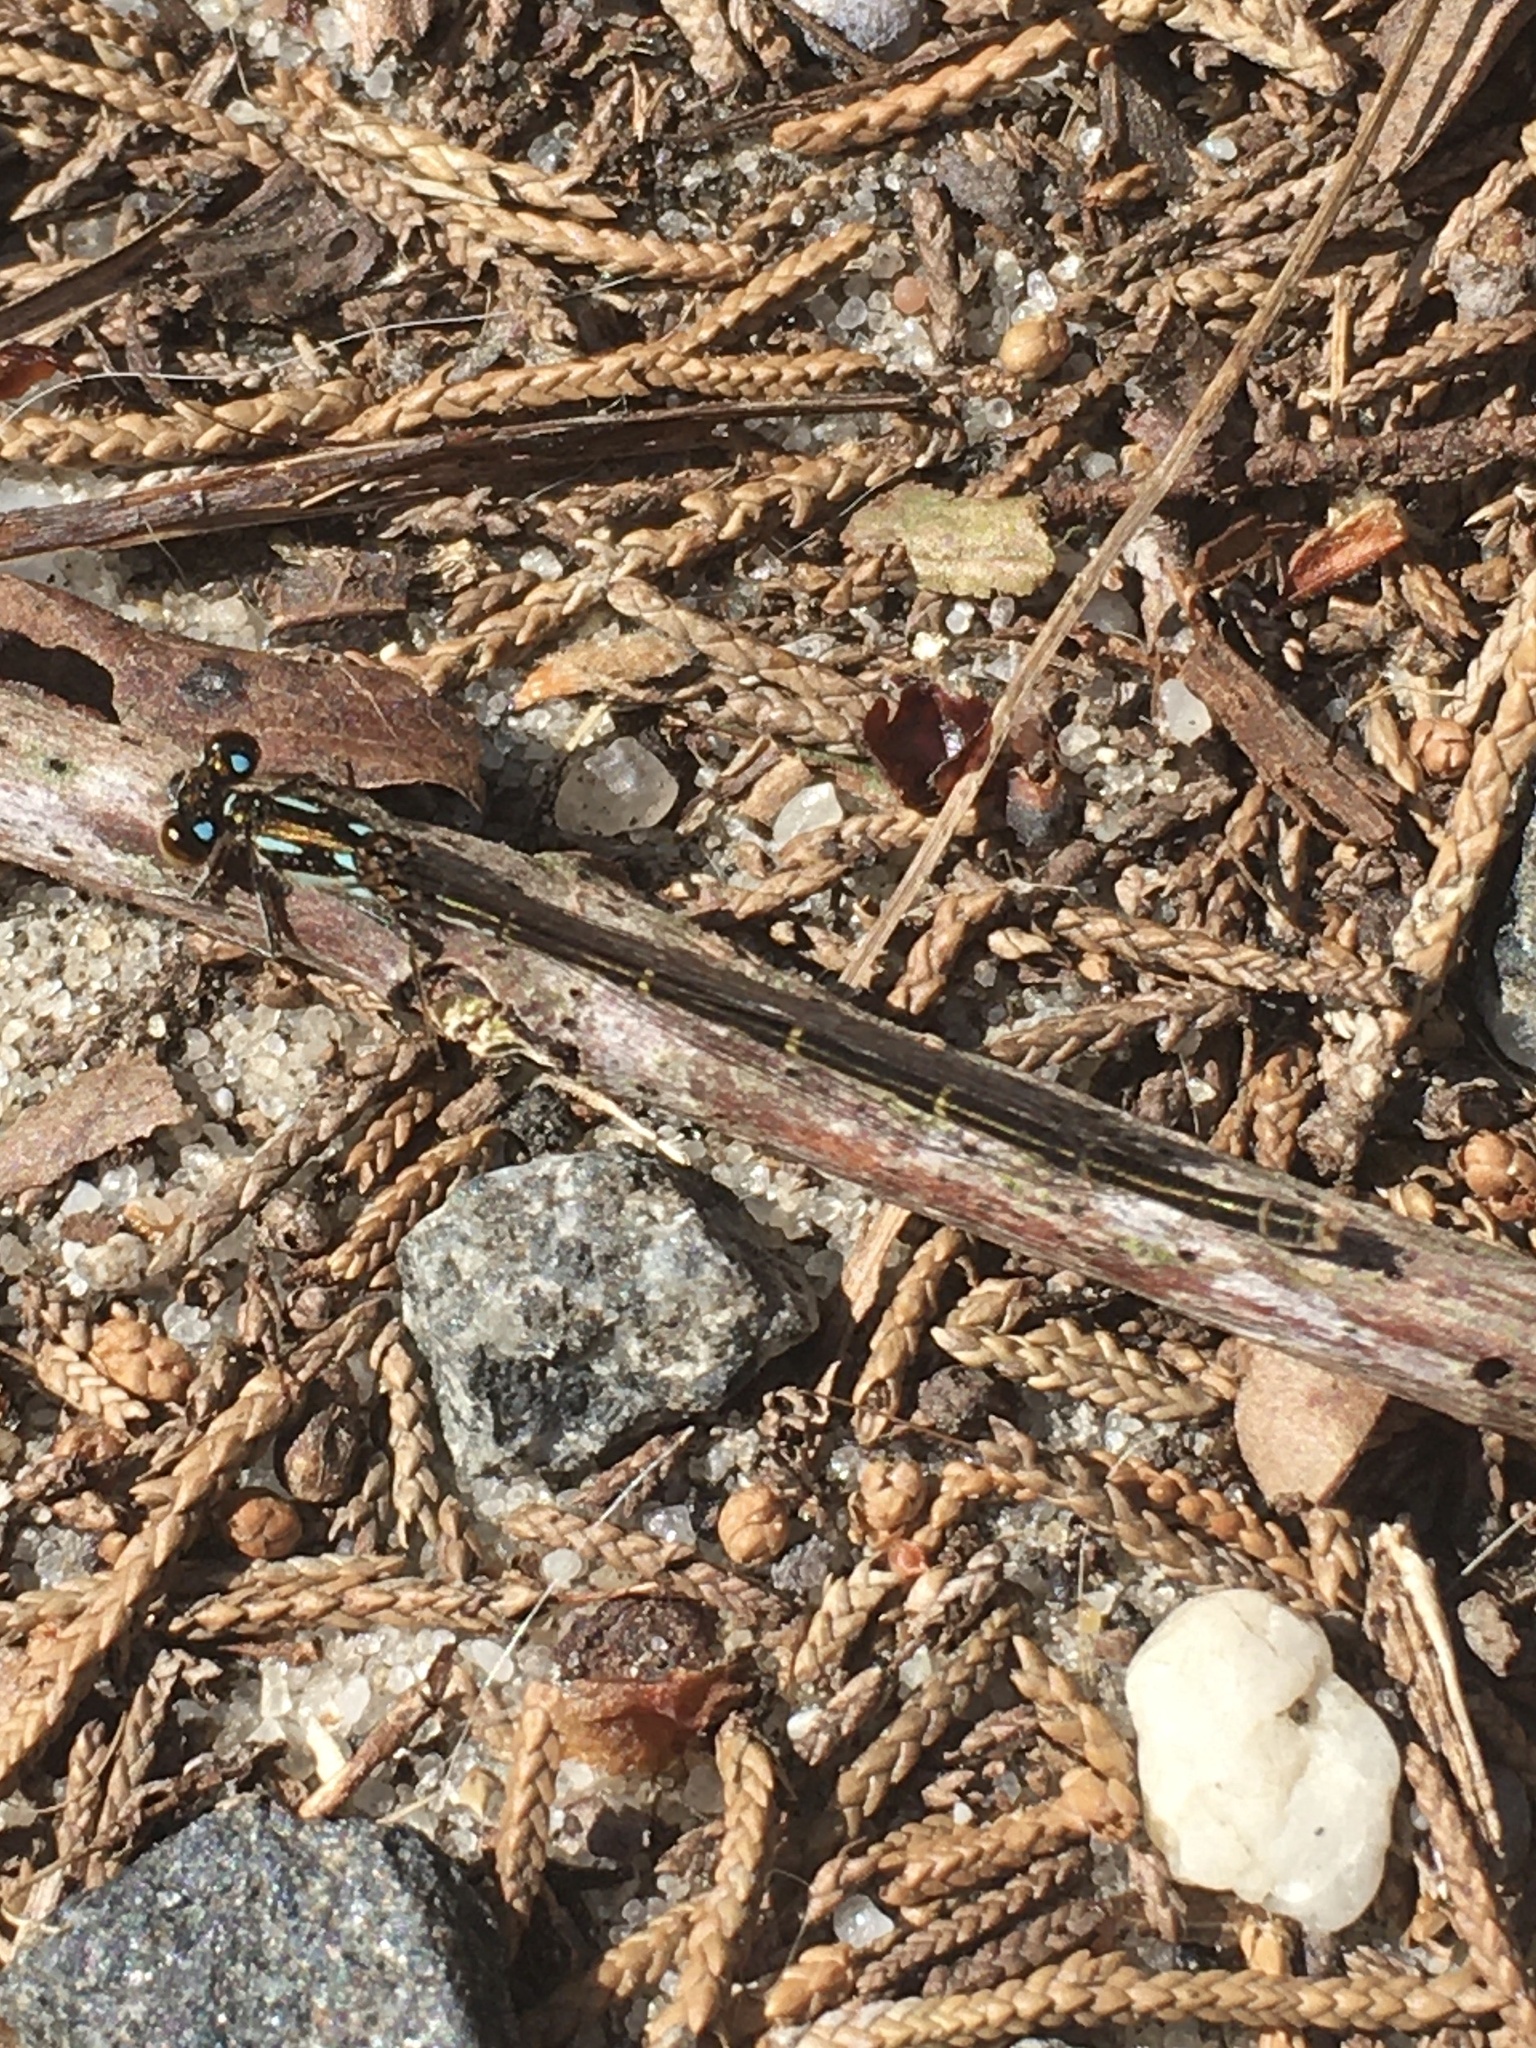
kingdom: Animalia
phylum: Arthropoda
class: Insecta
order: Odonata
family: Coenagrionidae
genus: Ischnura
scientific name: Ischnura posita
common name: Fragile forktail
